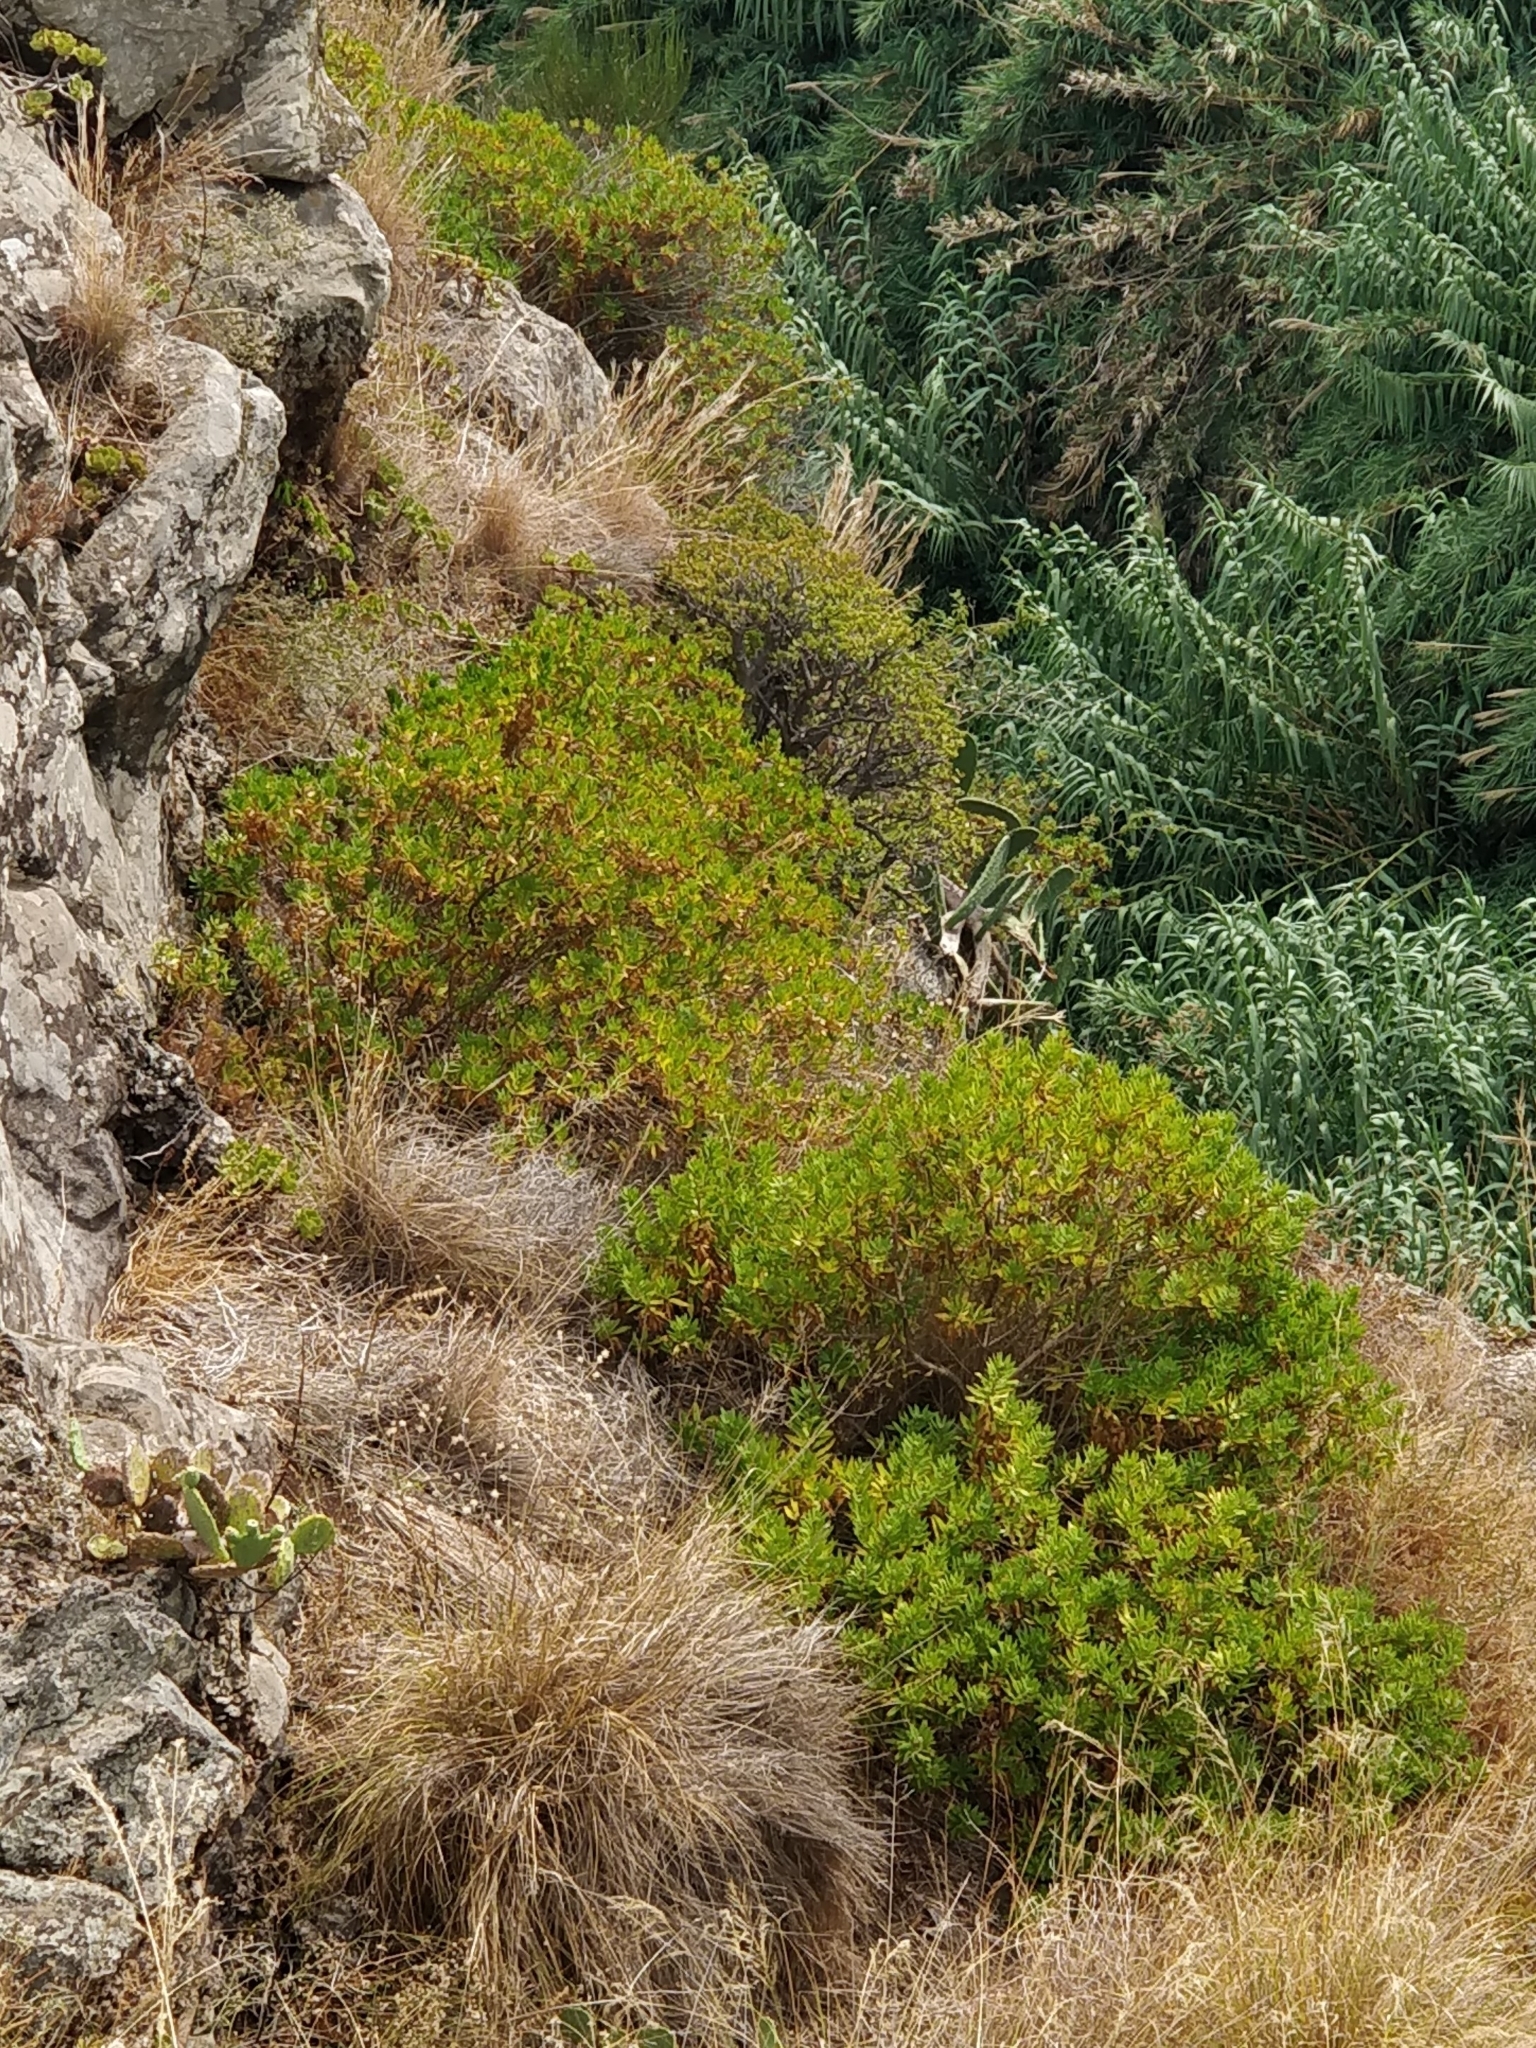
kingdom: Plantae
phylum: Tracheophyta
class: Magnoliopsida
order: Lamiales
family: Plantaginaceae
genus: Globularia
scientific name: Globularia salicina
